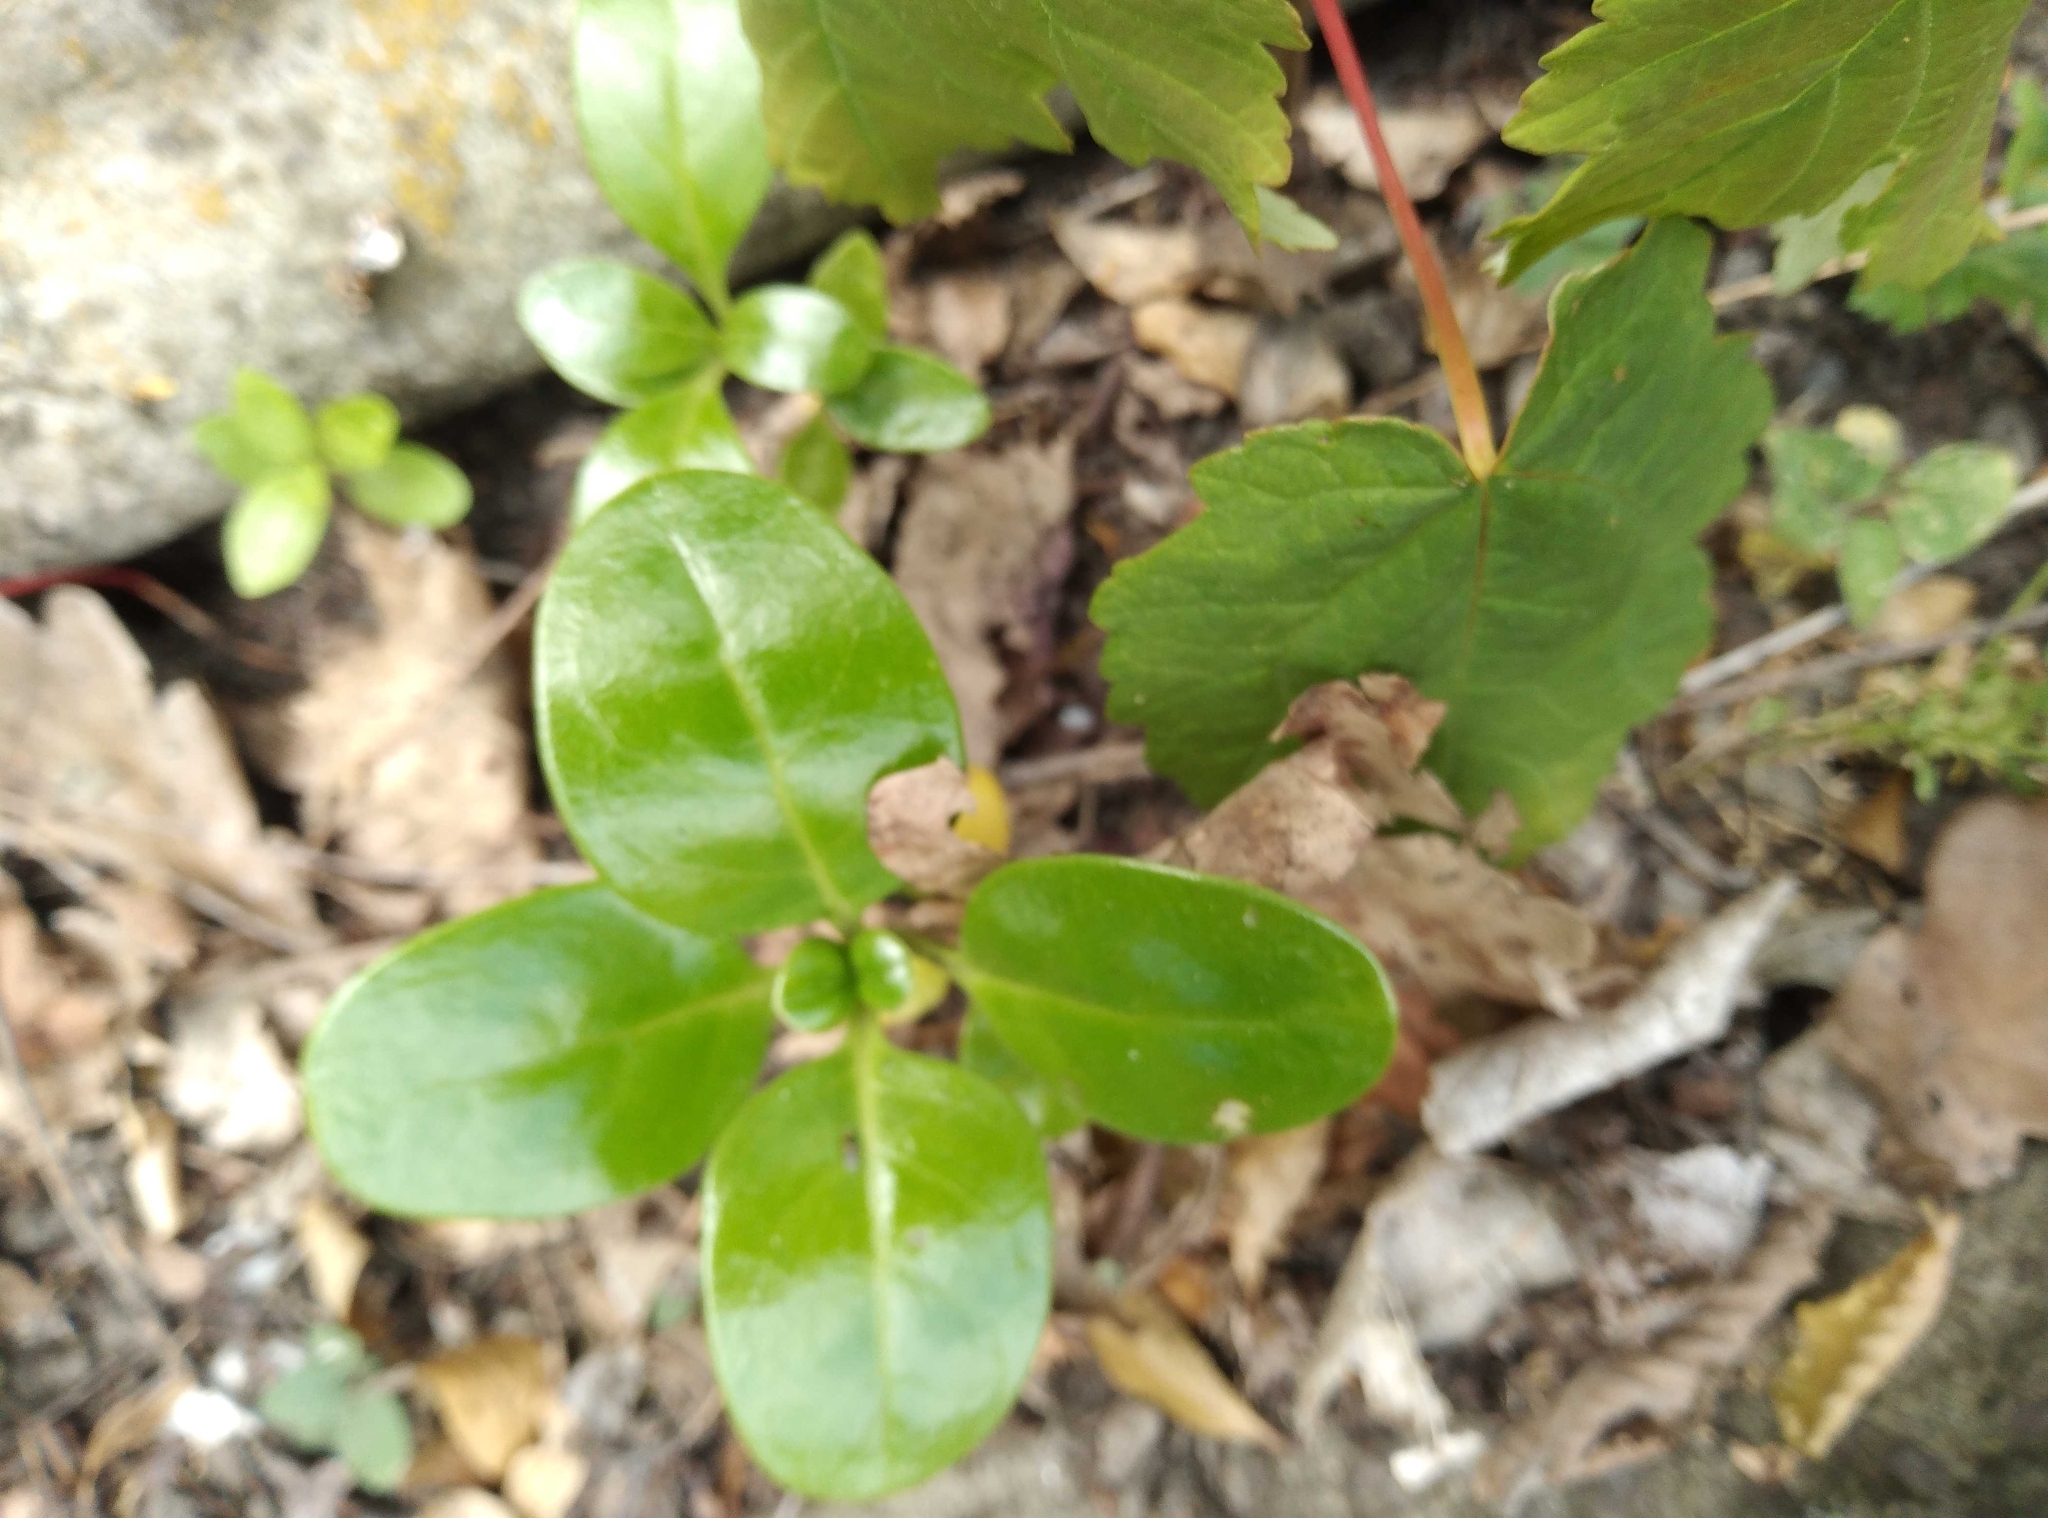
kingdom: Plantae
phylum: Tracheophyta
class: Magnoliopsida
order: Gentianales
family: Rubiaceae
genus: Coprosma
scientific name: Coprosma repens
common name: Tree bedstraw
